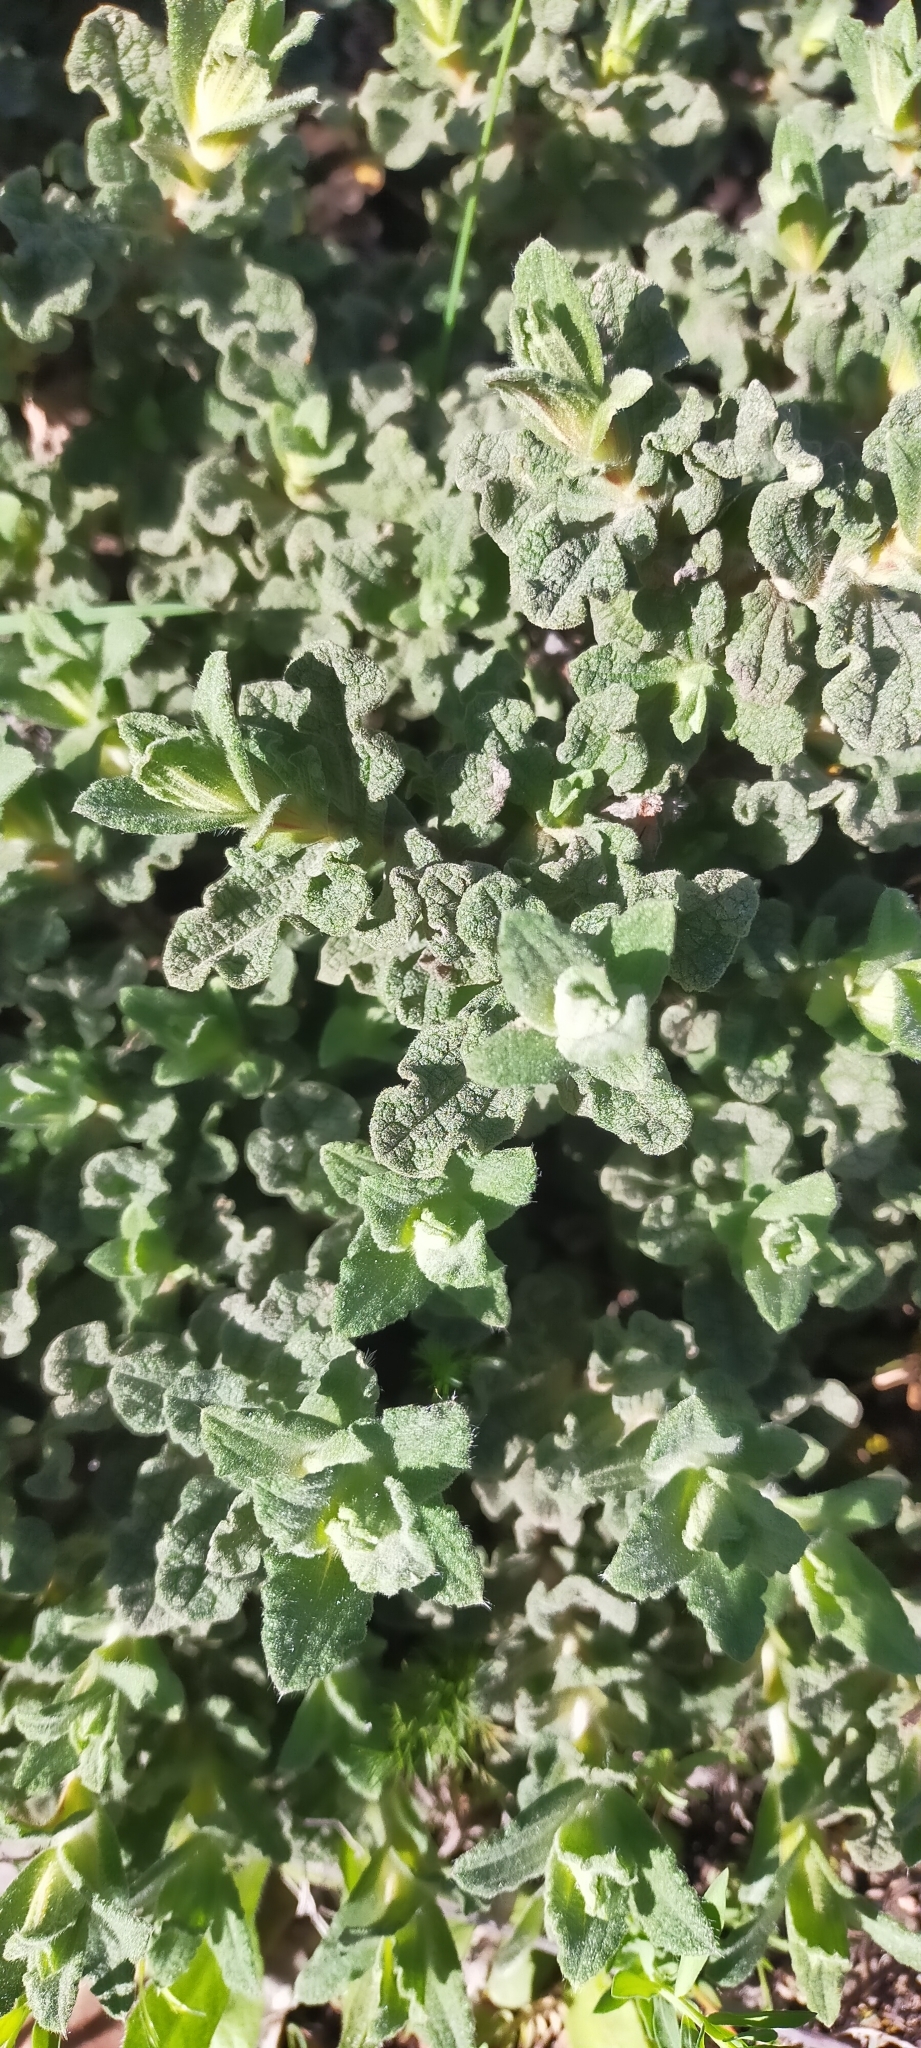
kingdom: Plantae
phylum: Tracheophyta
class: Magnoliopsida
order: Malvales
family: Cistaceae
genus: Cistus
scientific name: Cistus crispus
